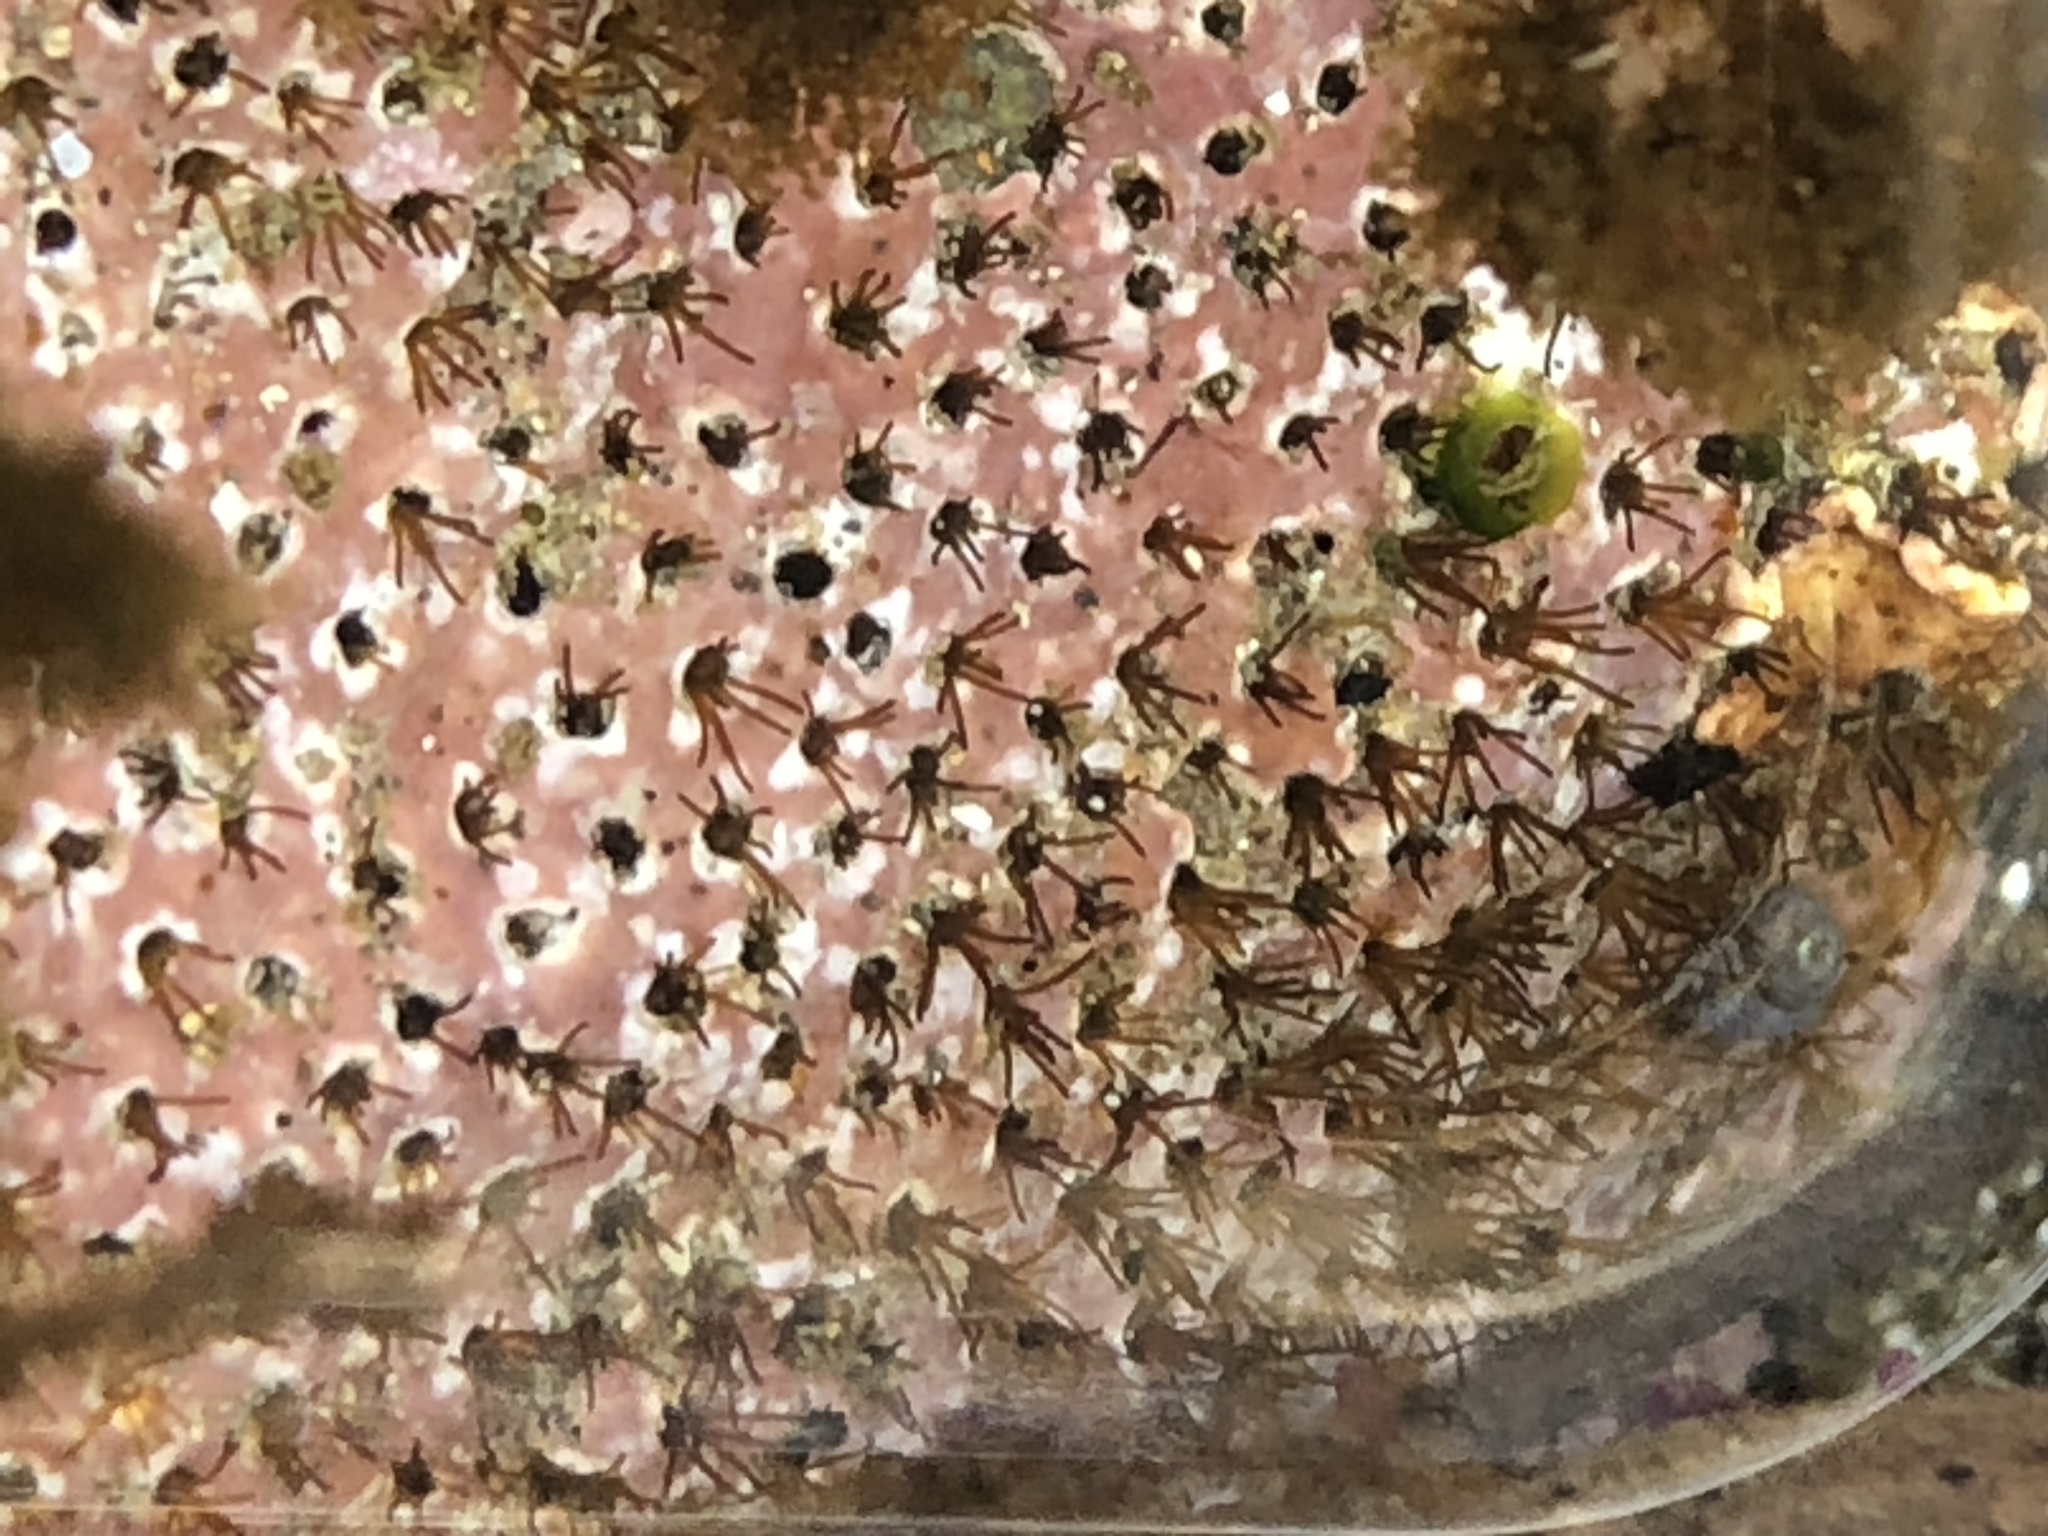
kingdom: Animalia
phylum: Annelida
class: Polychaeta
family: Cirratulidae
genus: Dodecaceria
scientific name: Dodecaceria concharum
